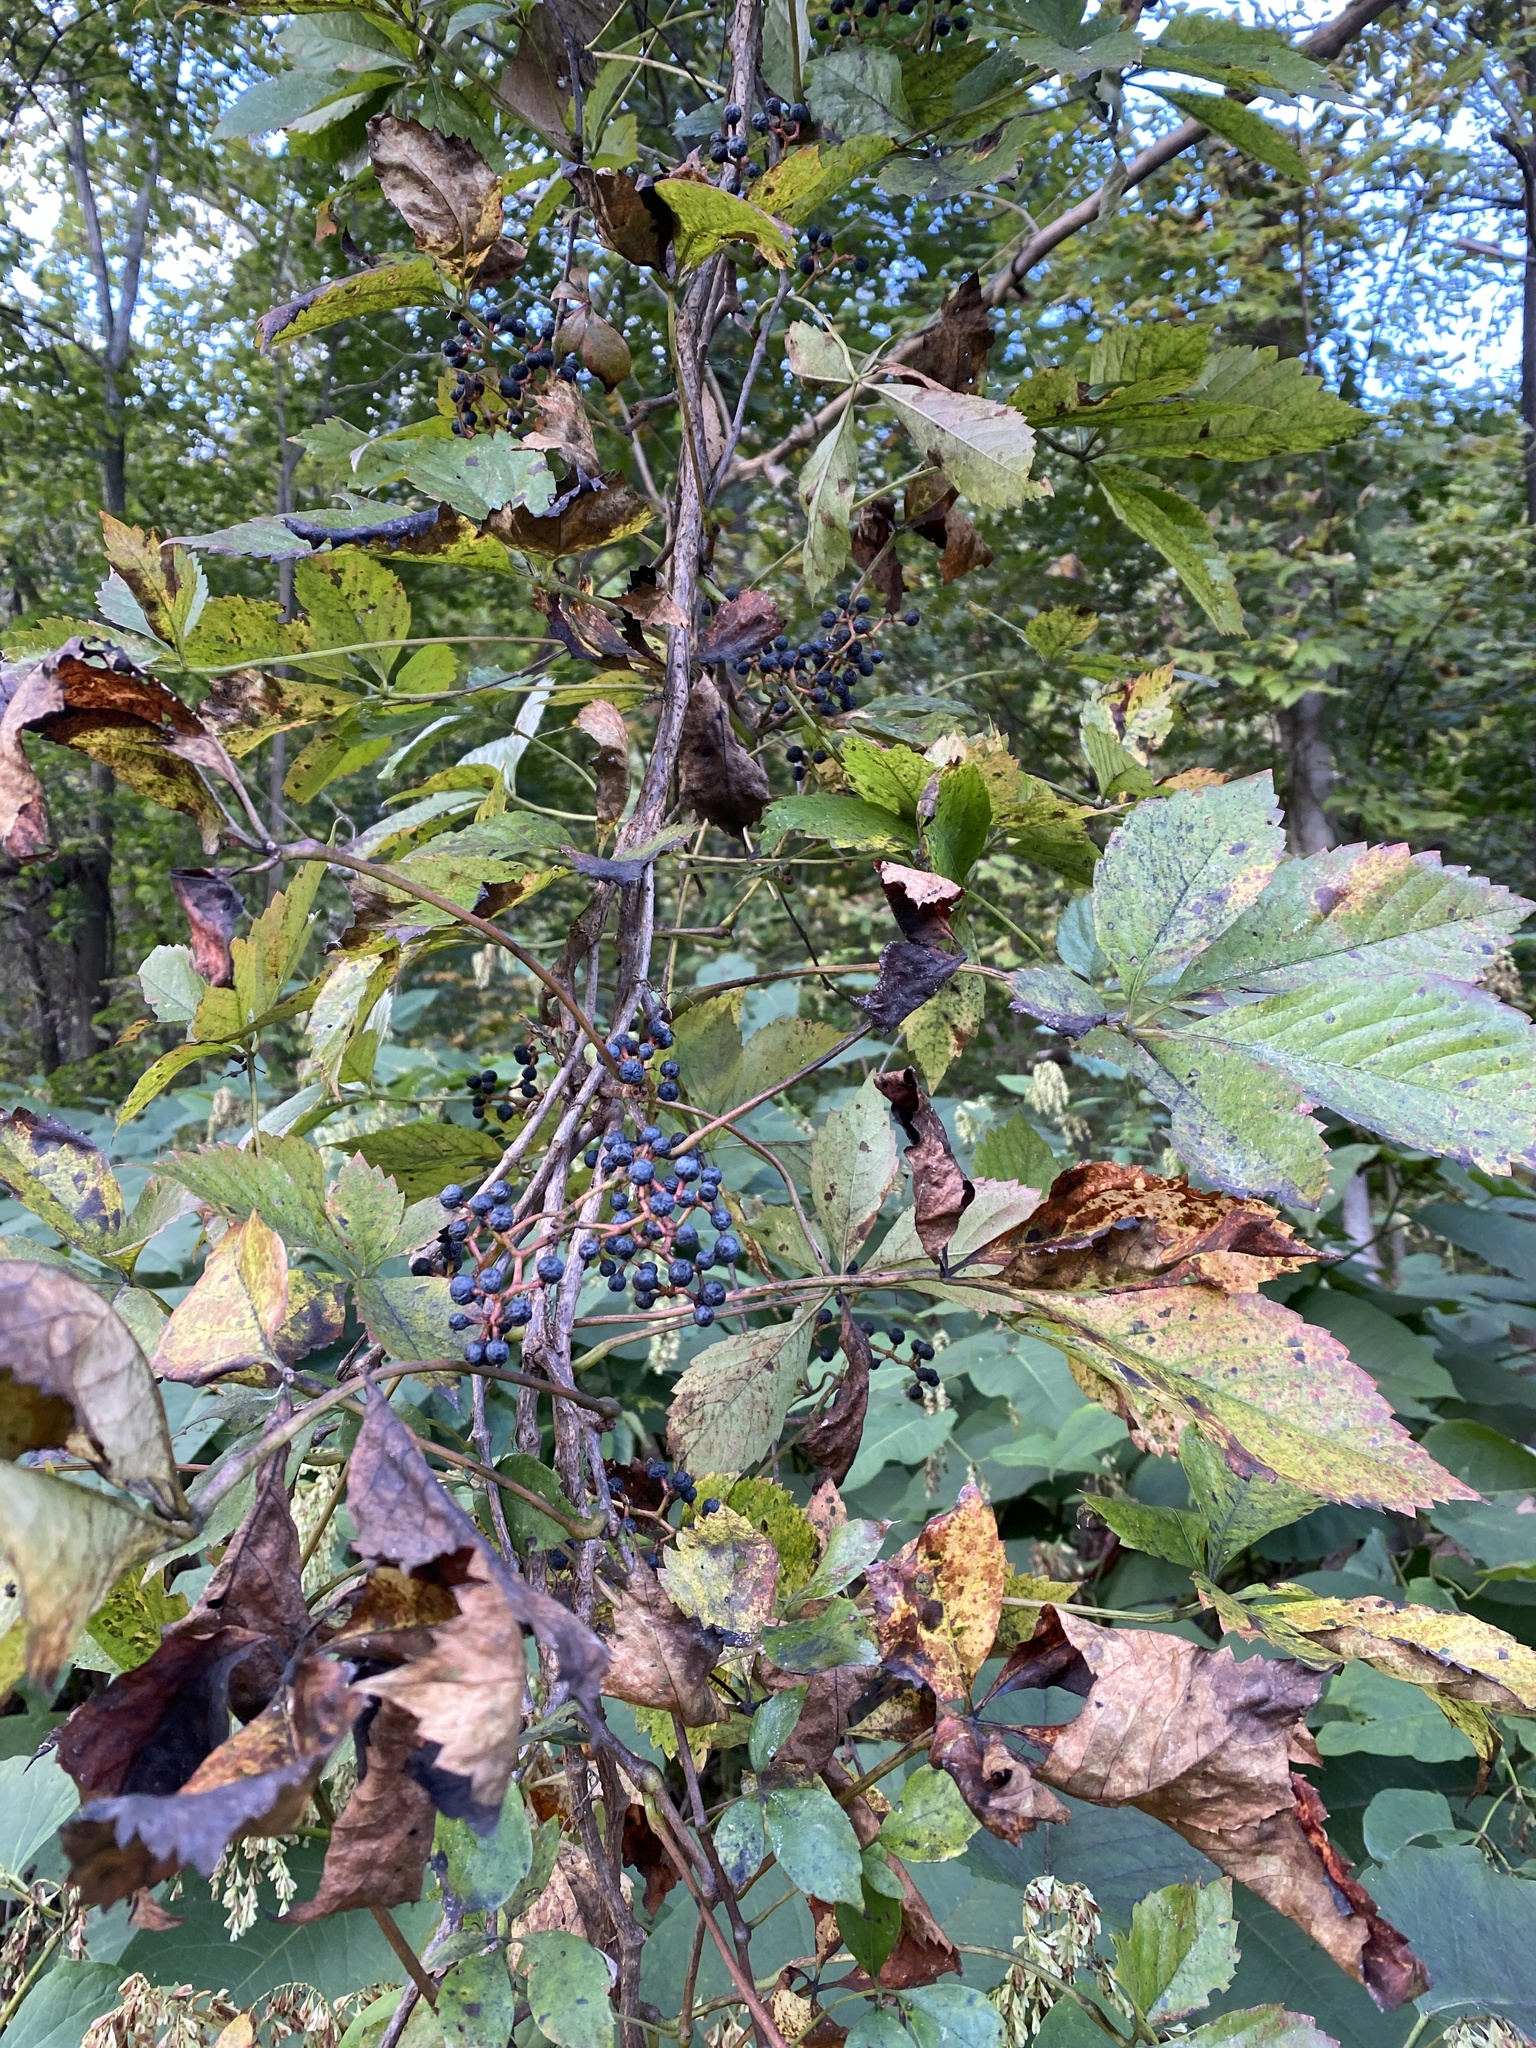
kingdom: Plantae
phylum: Tracheophyta
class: Magnoliopsida
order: Vitales
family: Vitaceae
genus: Parthenocissus
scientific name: Parthenocissus quinquefolia
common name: Virginia-creeper
